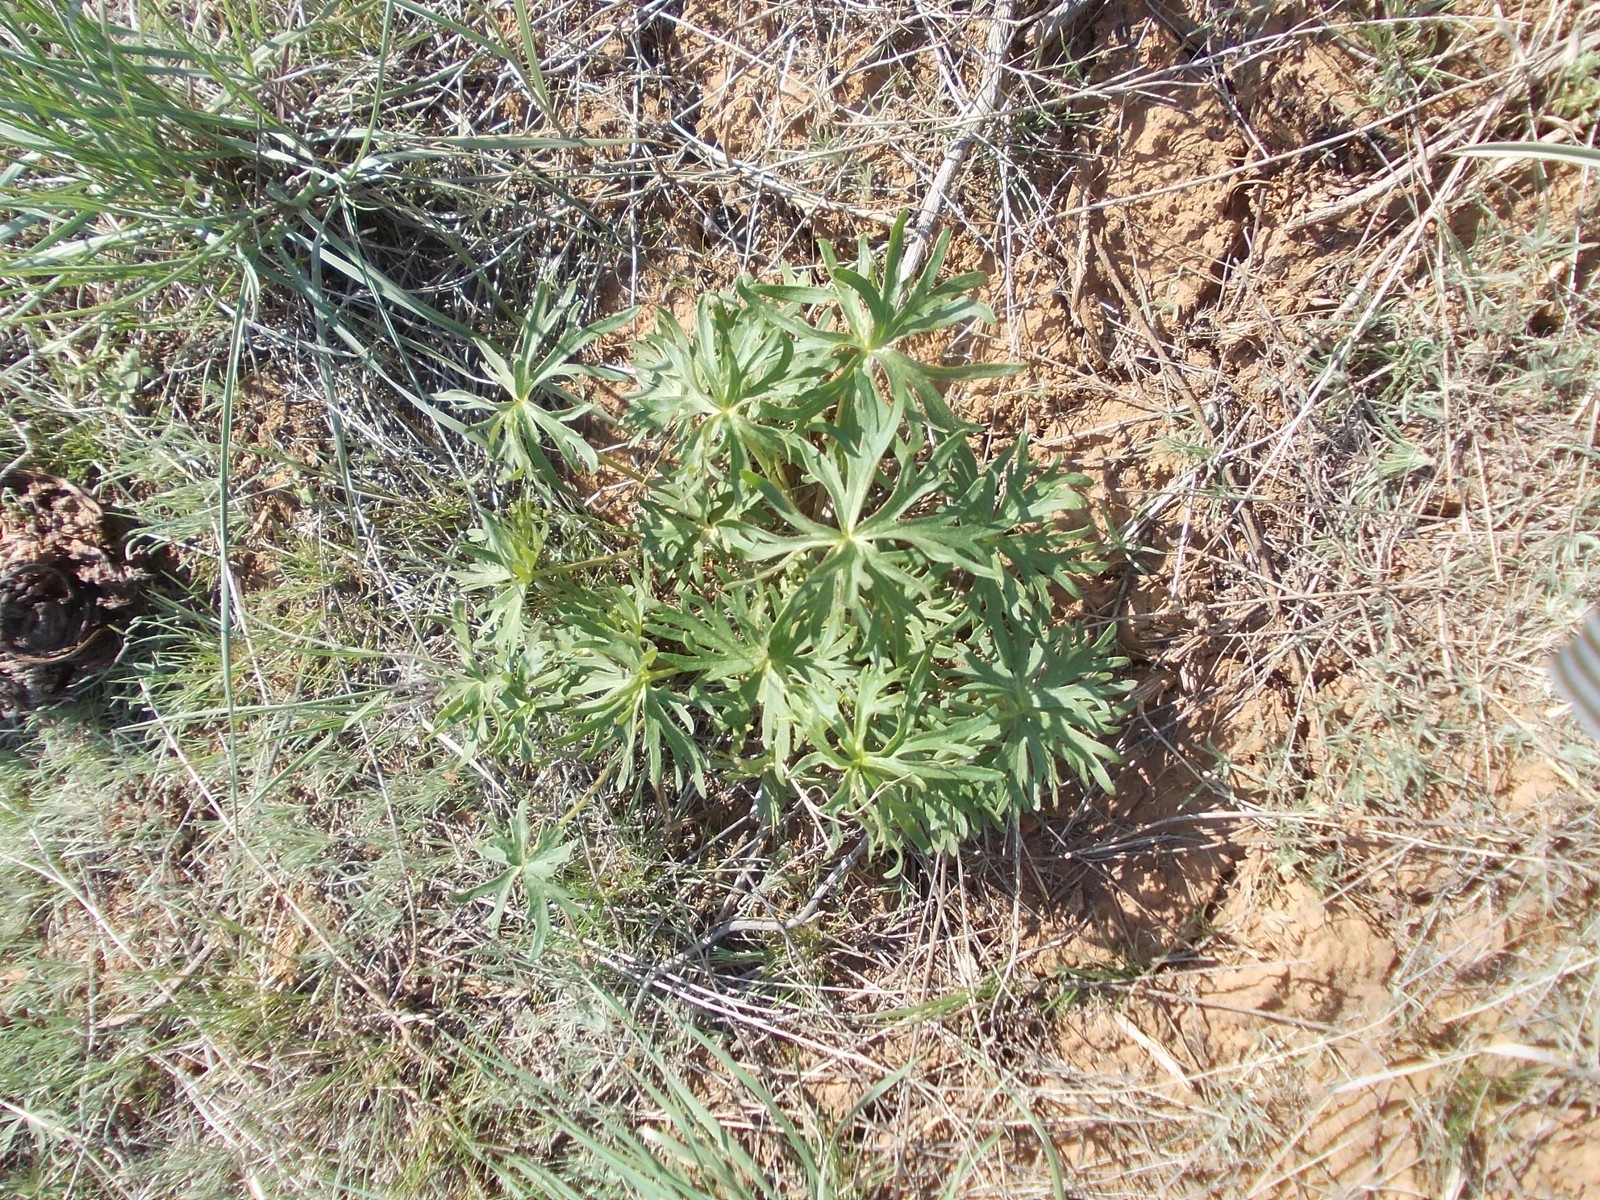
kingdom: Plantae
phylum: Tracheophyta
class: Magnoliopsida
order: Ranunculales
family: Ranunculaceae
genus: Delphinium
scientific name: Delphinium puniceum
